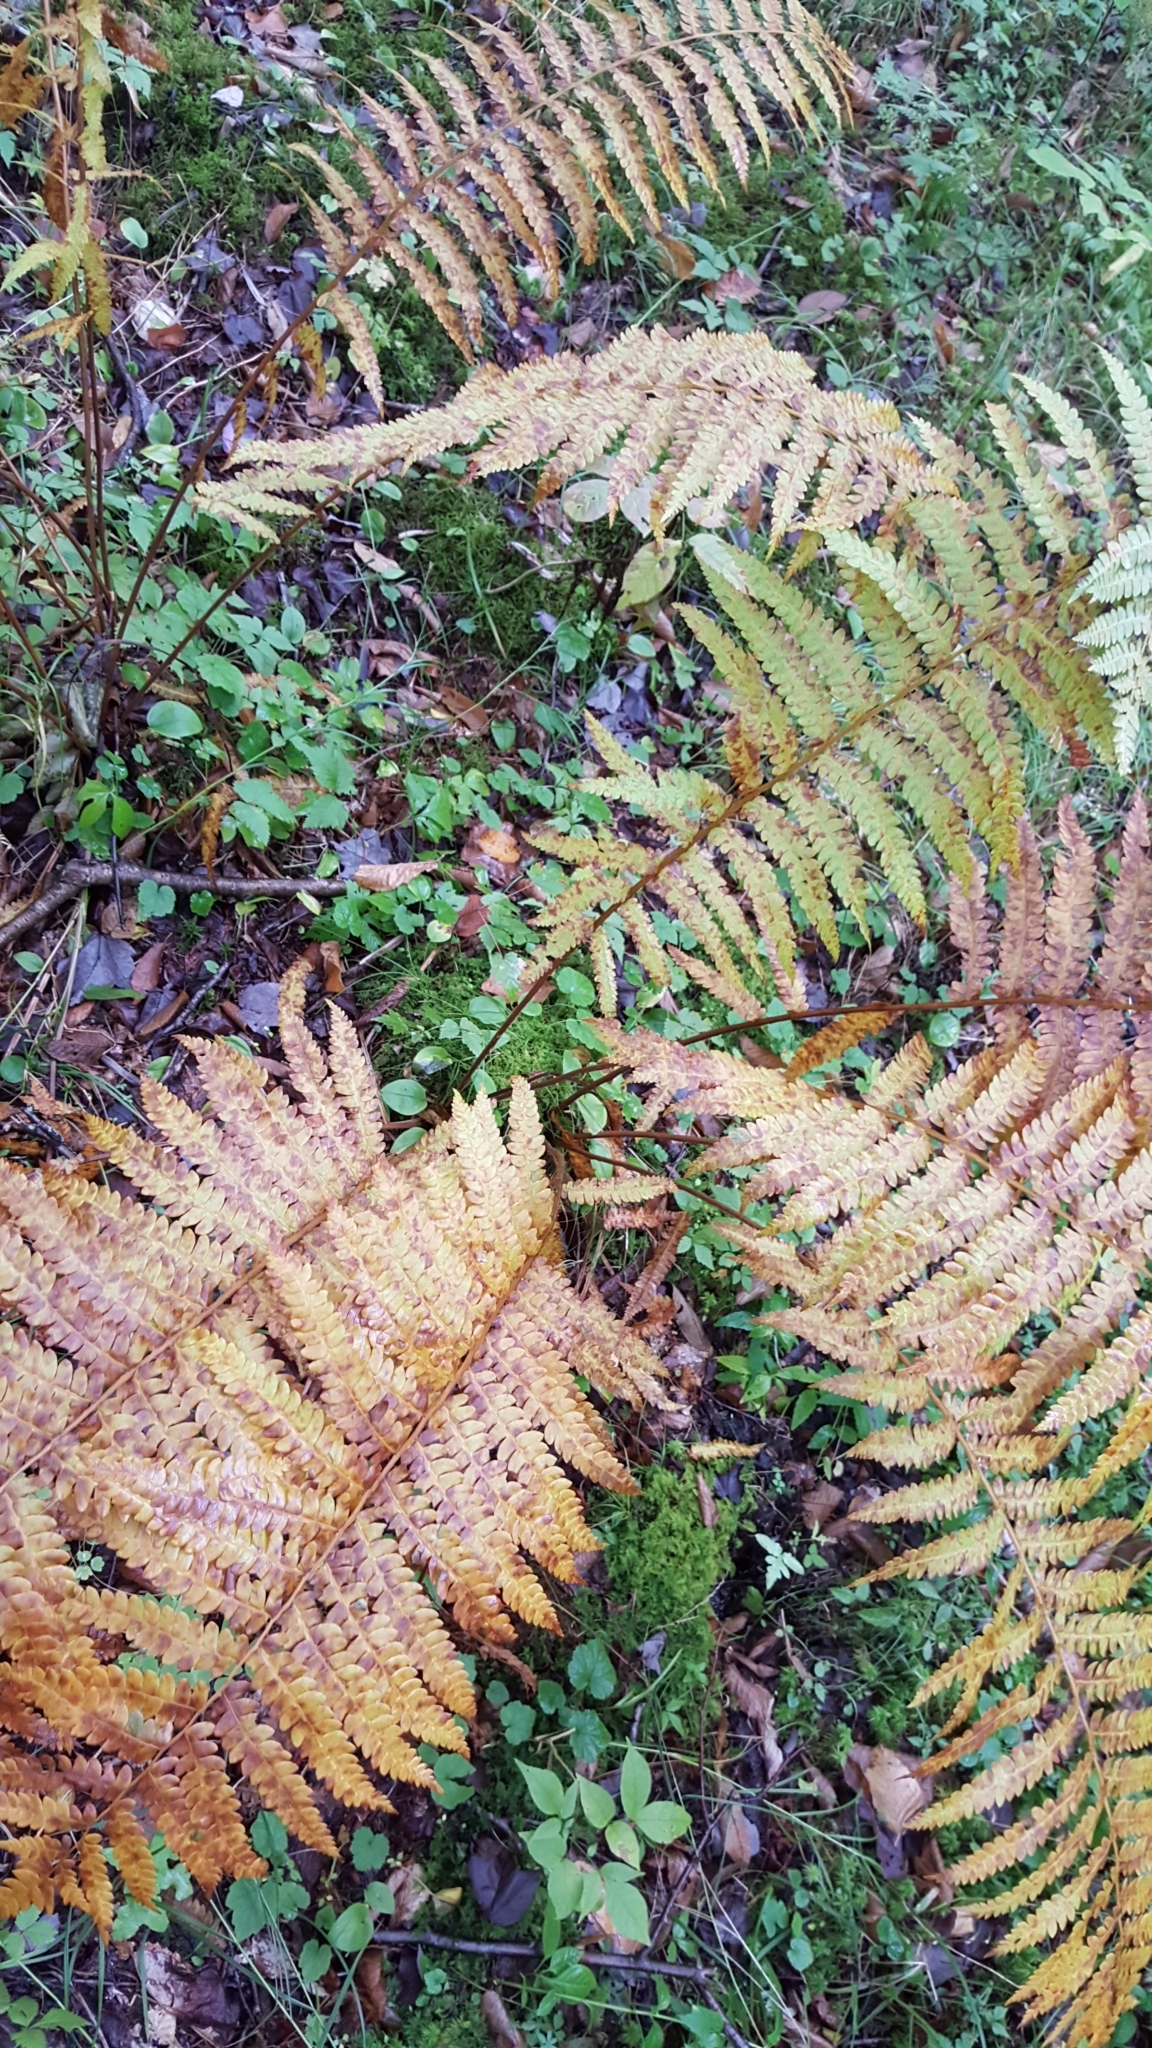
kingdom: Plantae
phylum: Tracheophyta
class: Polypodiopsida
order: Osmundales
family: Osmundaceae
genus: Osmundastrum
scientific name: Osmundastrum cinnamomeum
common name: Cinnamon fern
